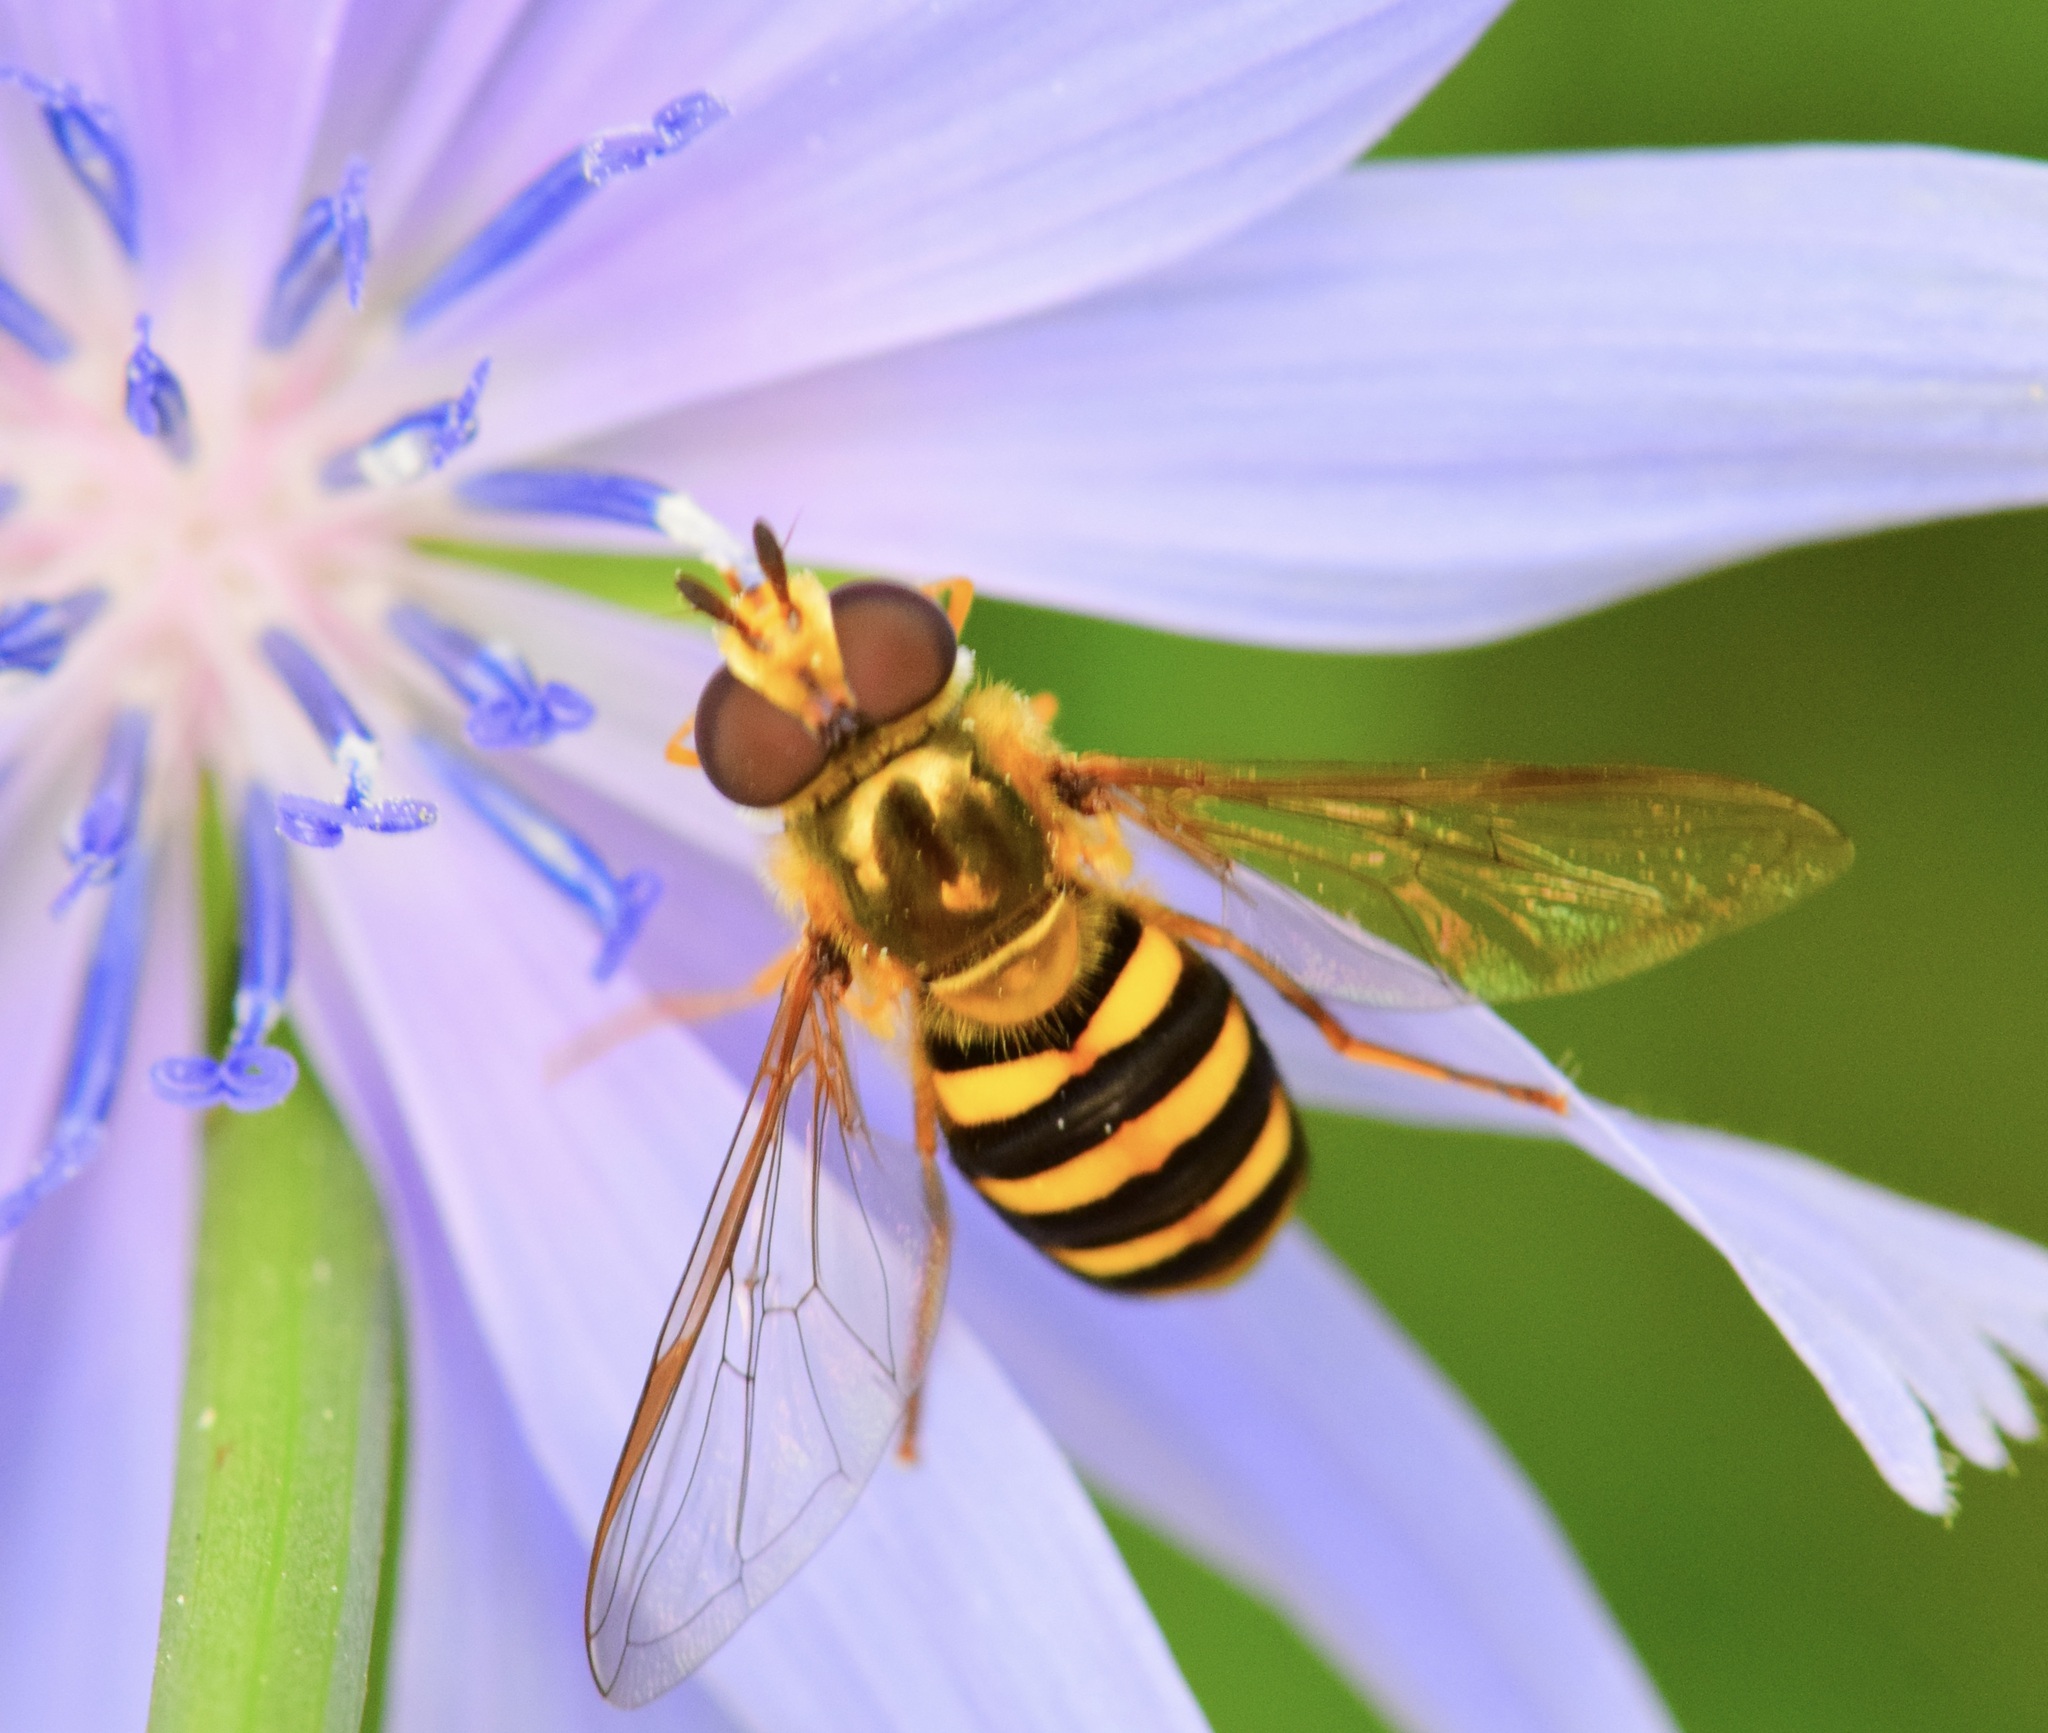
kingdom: Animalia
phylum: Arthropoda
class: Insecta
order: Diptera
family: Syrphidae
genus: Eupeodes
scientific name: Eupeodes
